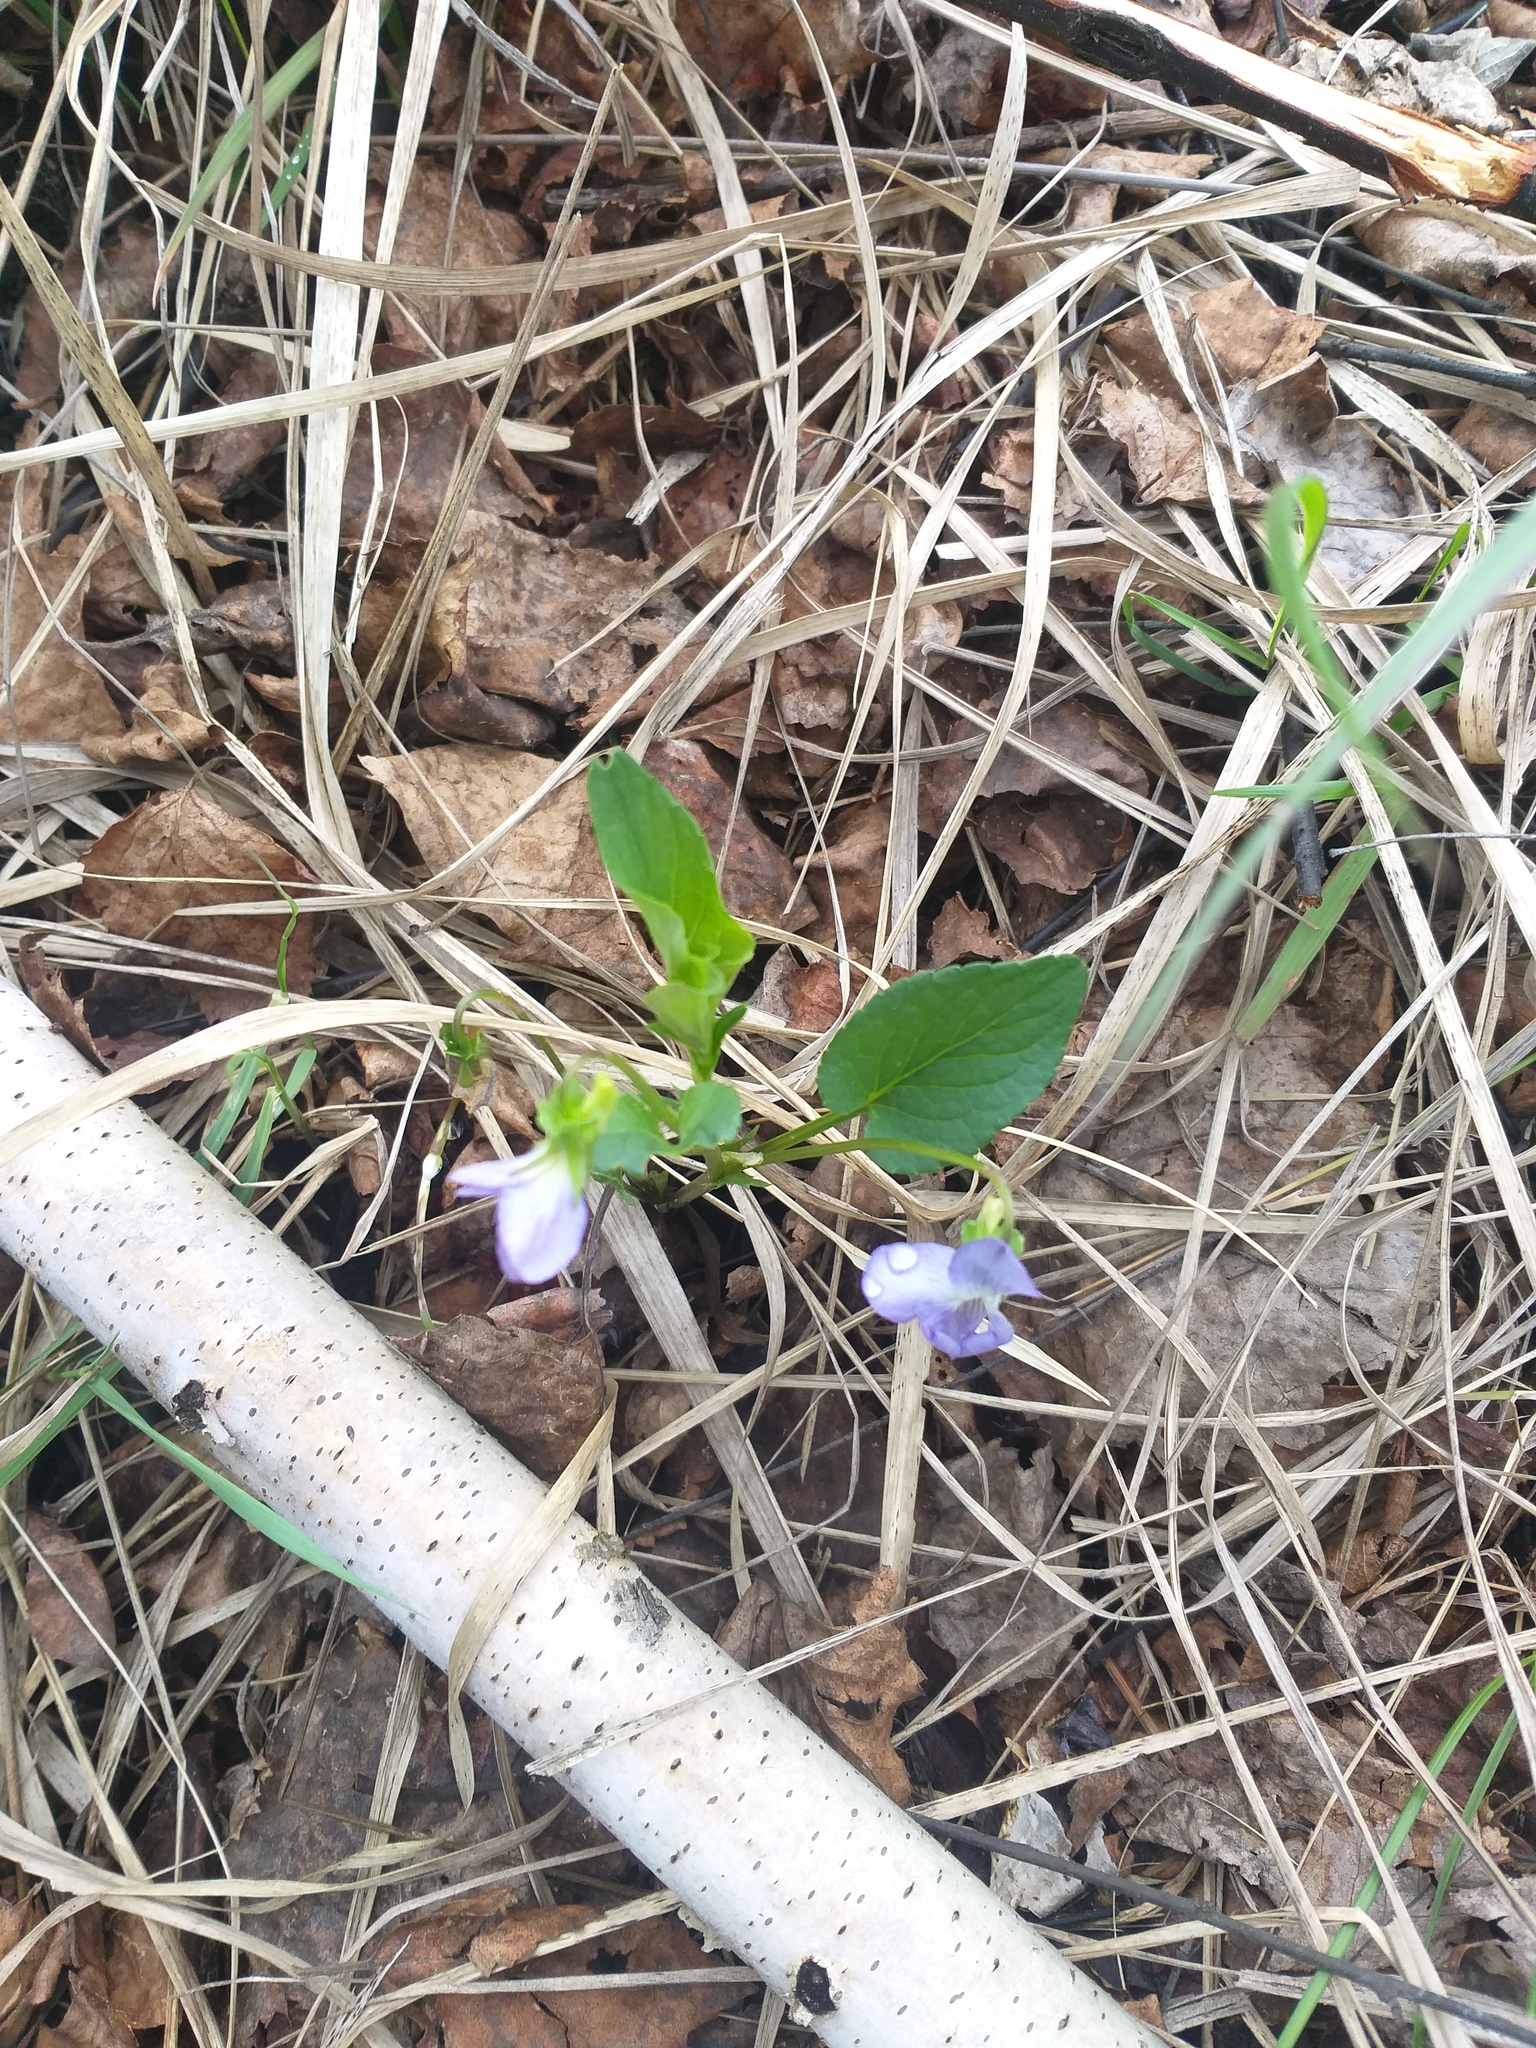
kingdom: Plantae
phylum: Tracheophyta
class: Magnoliopsida
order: Malpighiales
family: Violaceae
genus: Viola
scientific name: Viola
